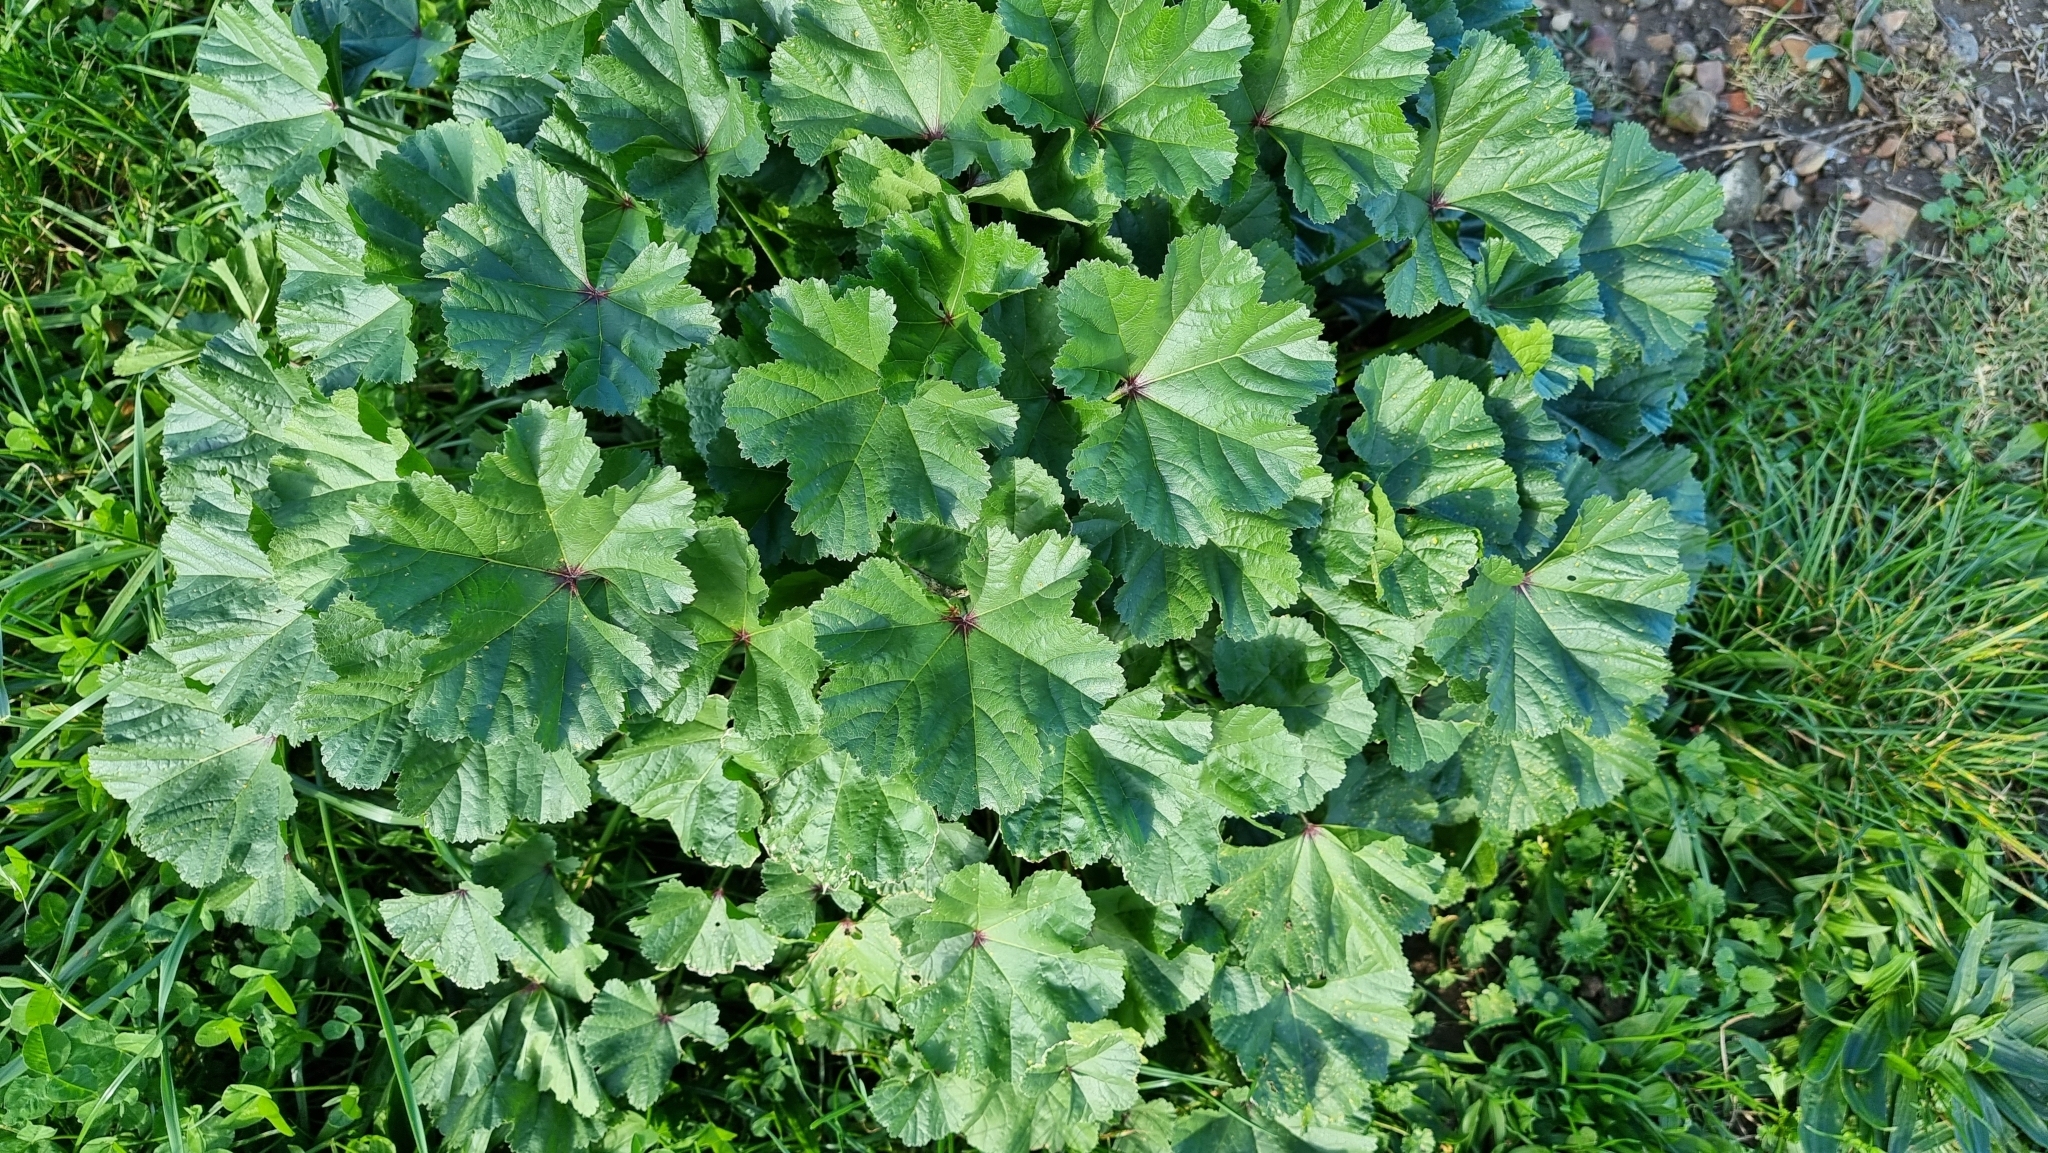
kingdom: Plantae
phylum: Tracheophyta
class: Magnoliopsida
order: Malvales
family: Malvaceae
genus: Malva
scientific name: Malva sylvestris
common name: Common mallow
